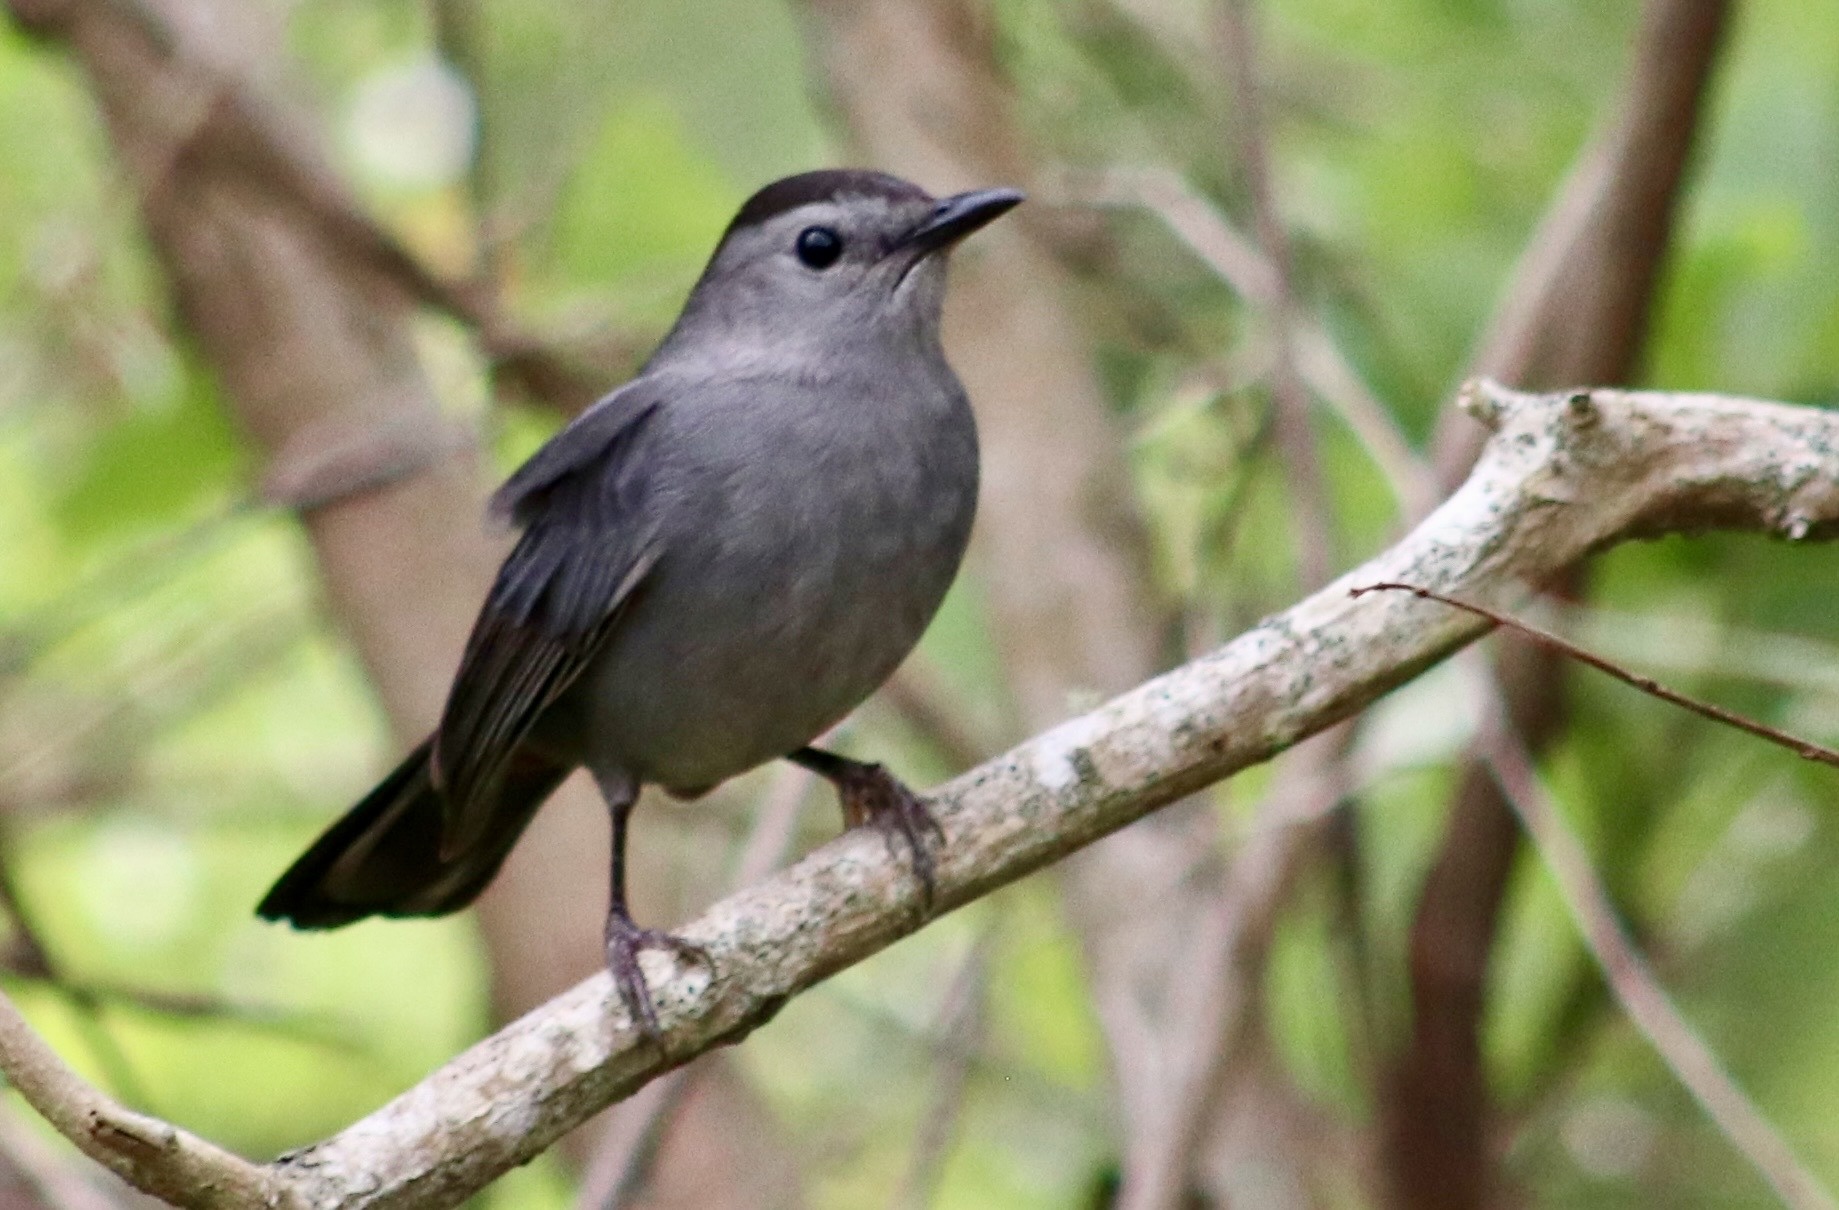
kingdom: Animalia
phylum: Chordata
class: Aves
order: Passeriformes
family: Mimidae
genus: Dumetella
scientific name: Dumetella carolinensis
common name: Gray catbird
